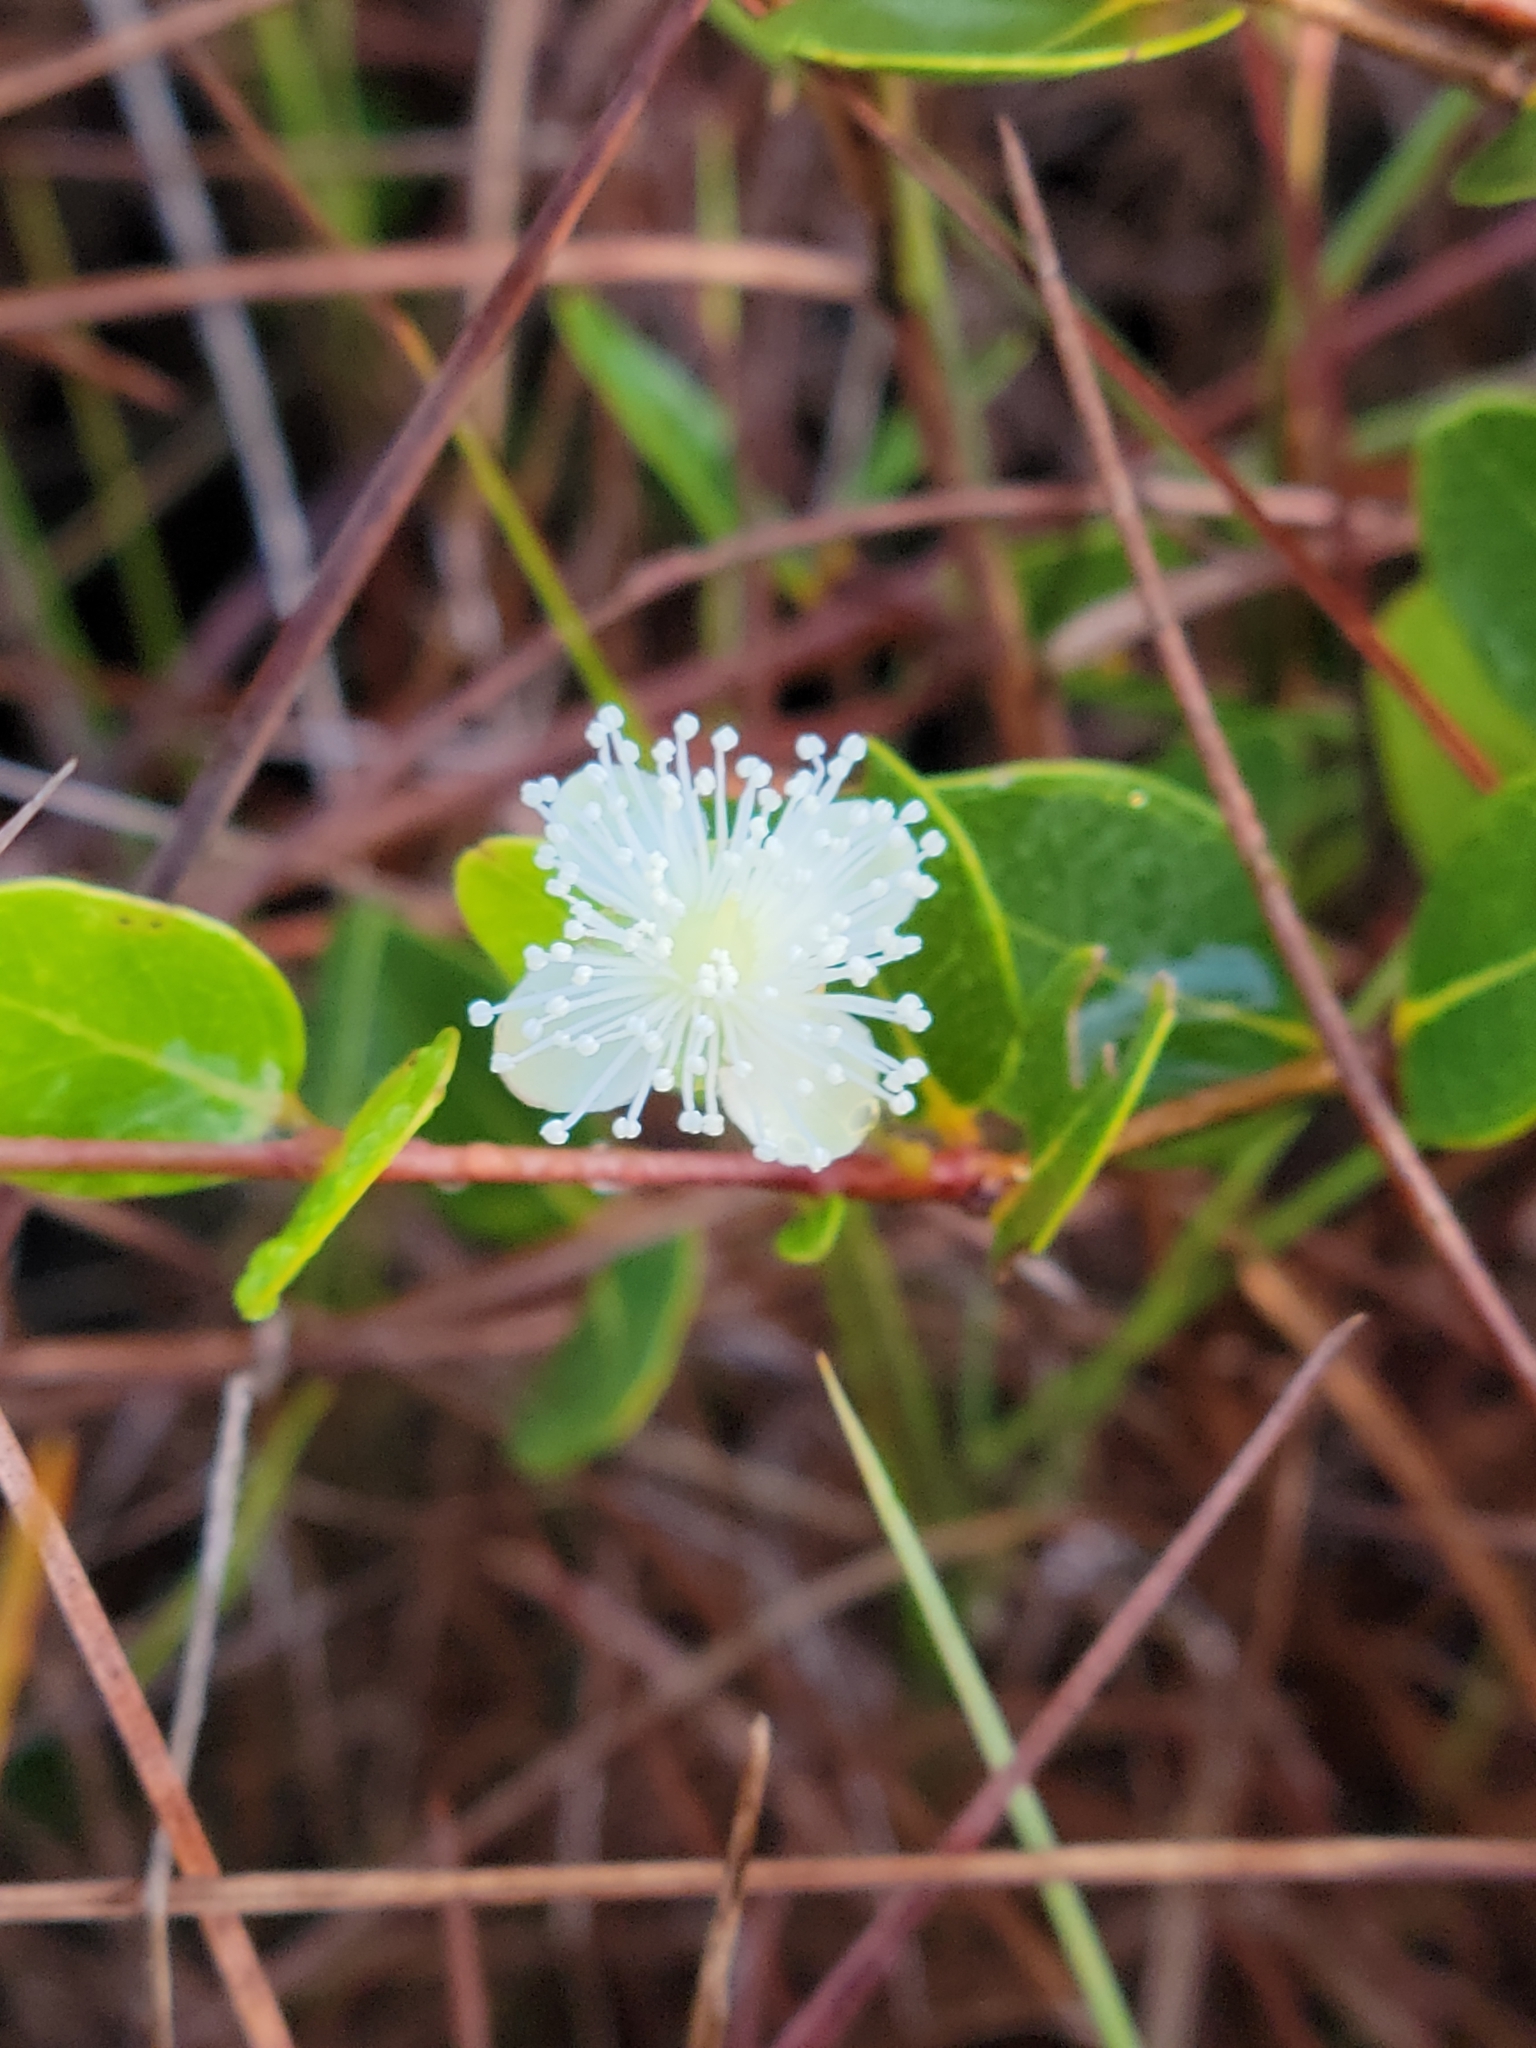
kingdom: Plantae
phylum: Tracheophyta
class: Magnoliopsida
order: Myrtales
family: Myrtaceae
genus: Mosiera
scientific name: Mosiera longipes
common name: Bahama stopper
